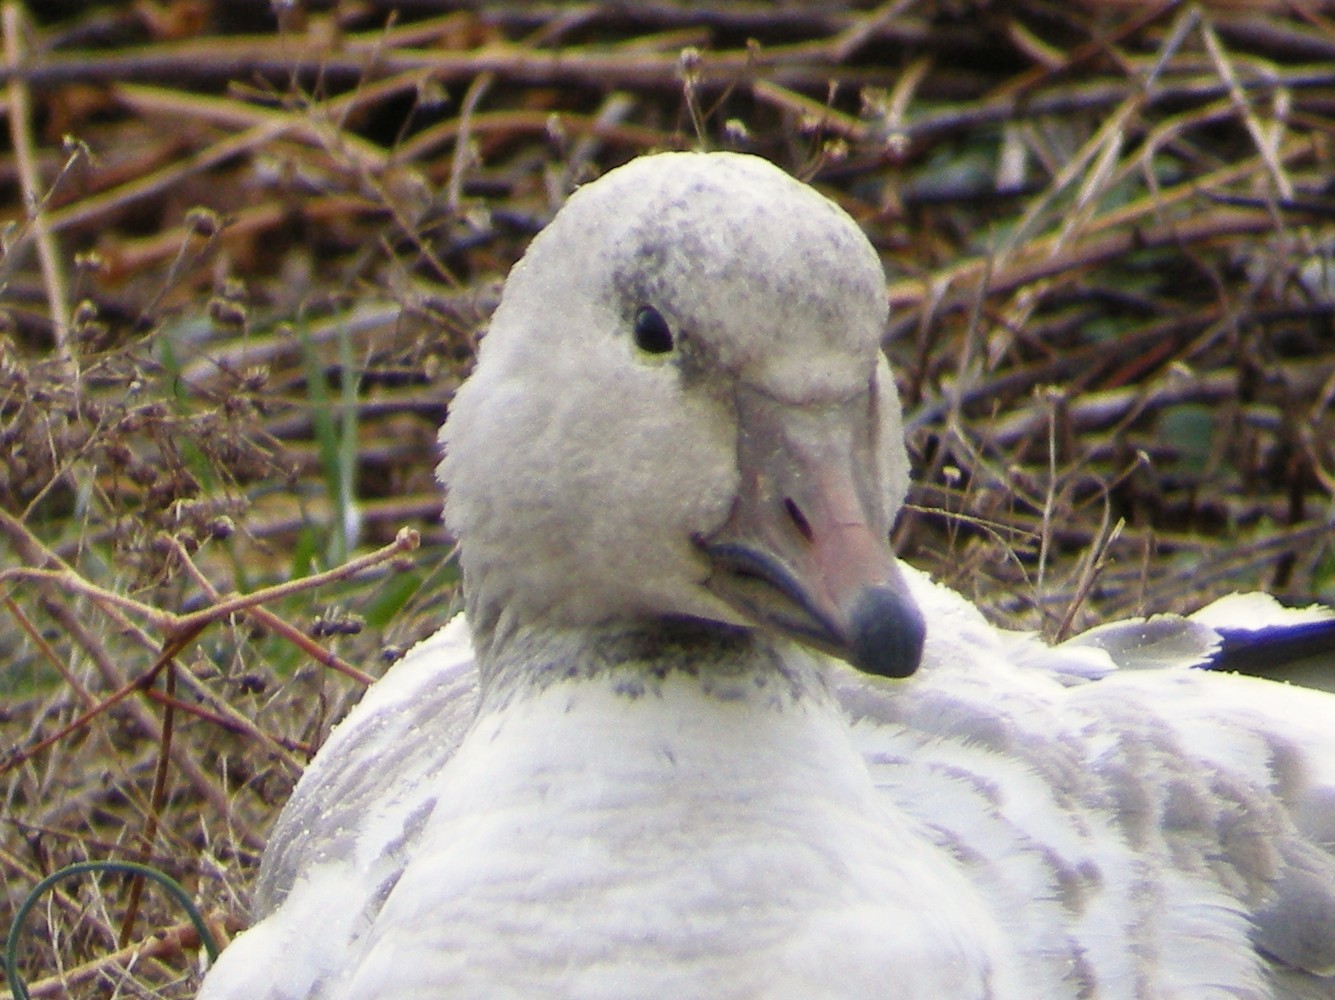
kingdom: Animalia
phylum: Chordata
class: Aves
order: Anseriformes
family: Anatidae
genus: Anser
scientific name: Anser caerulescens
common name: Snow goose
